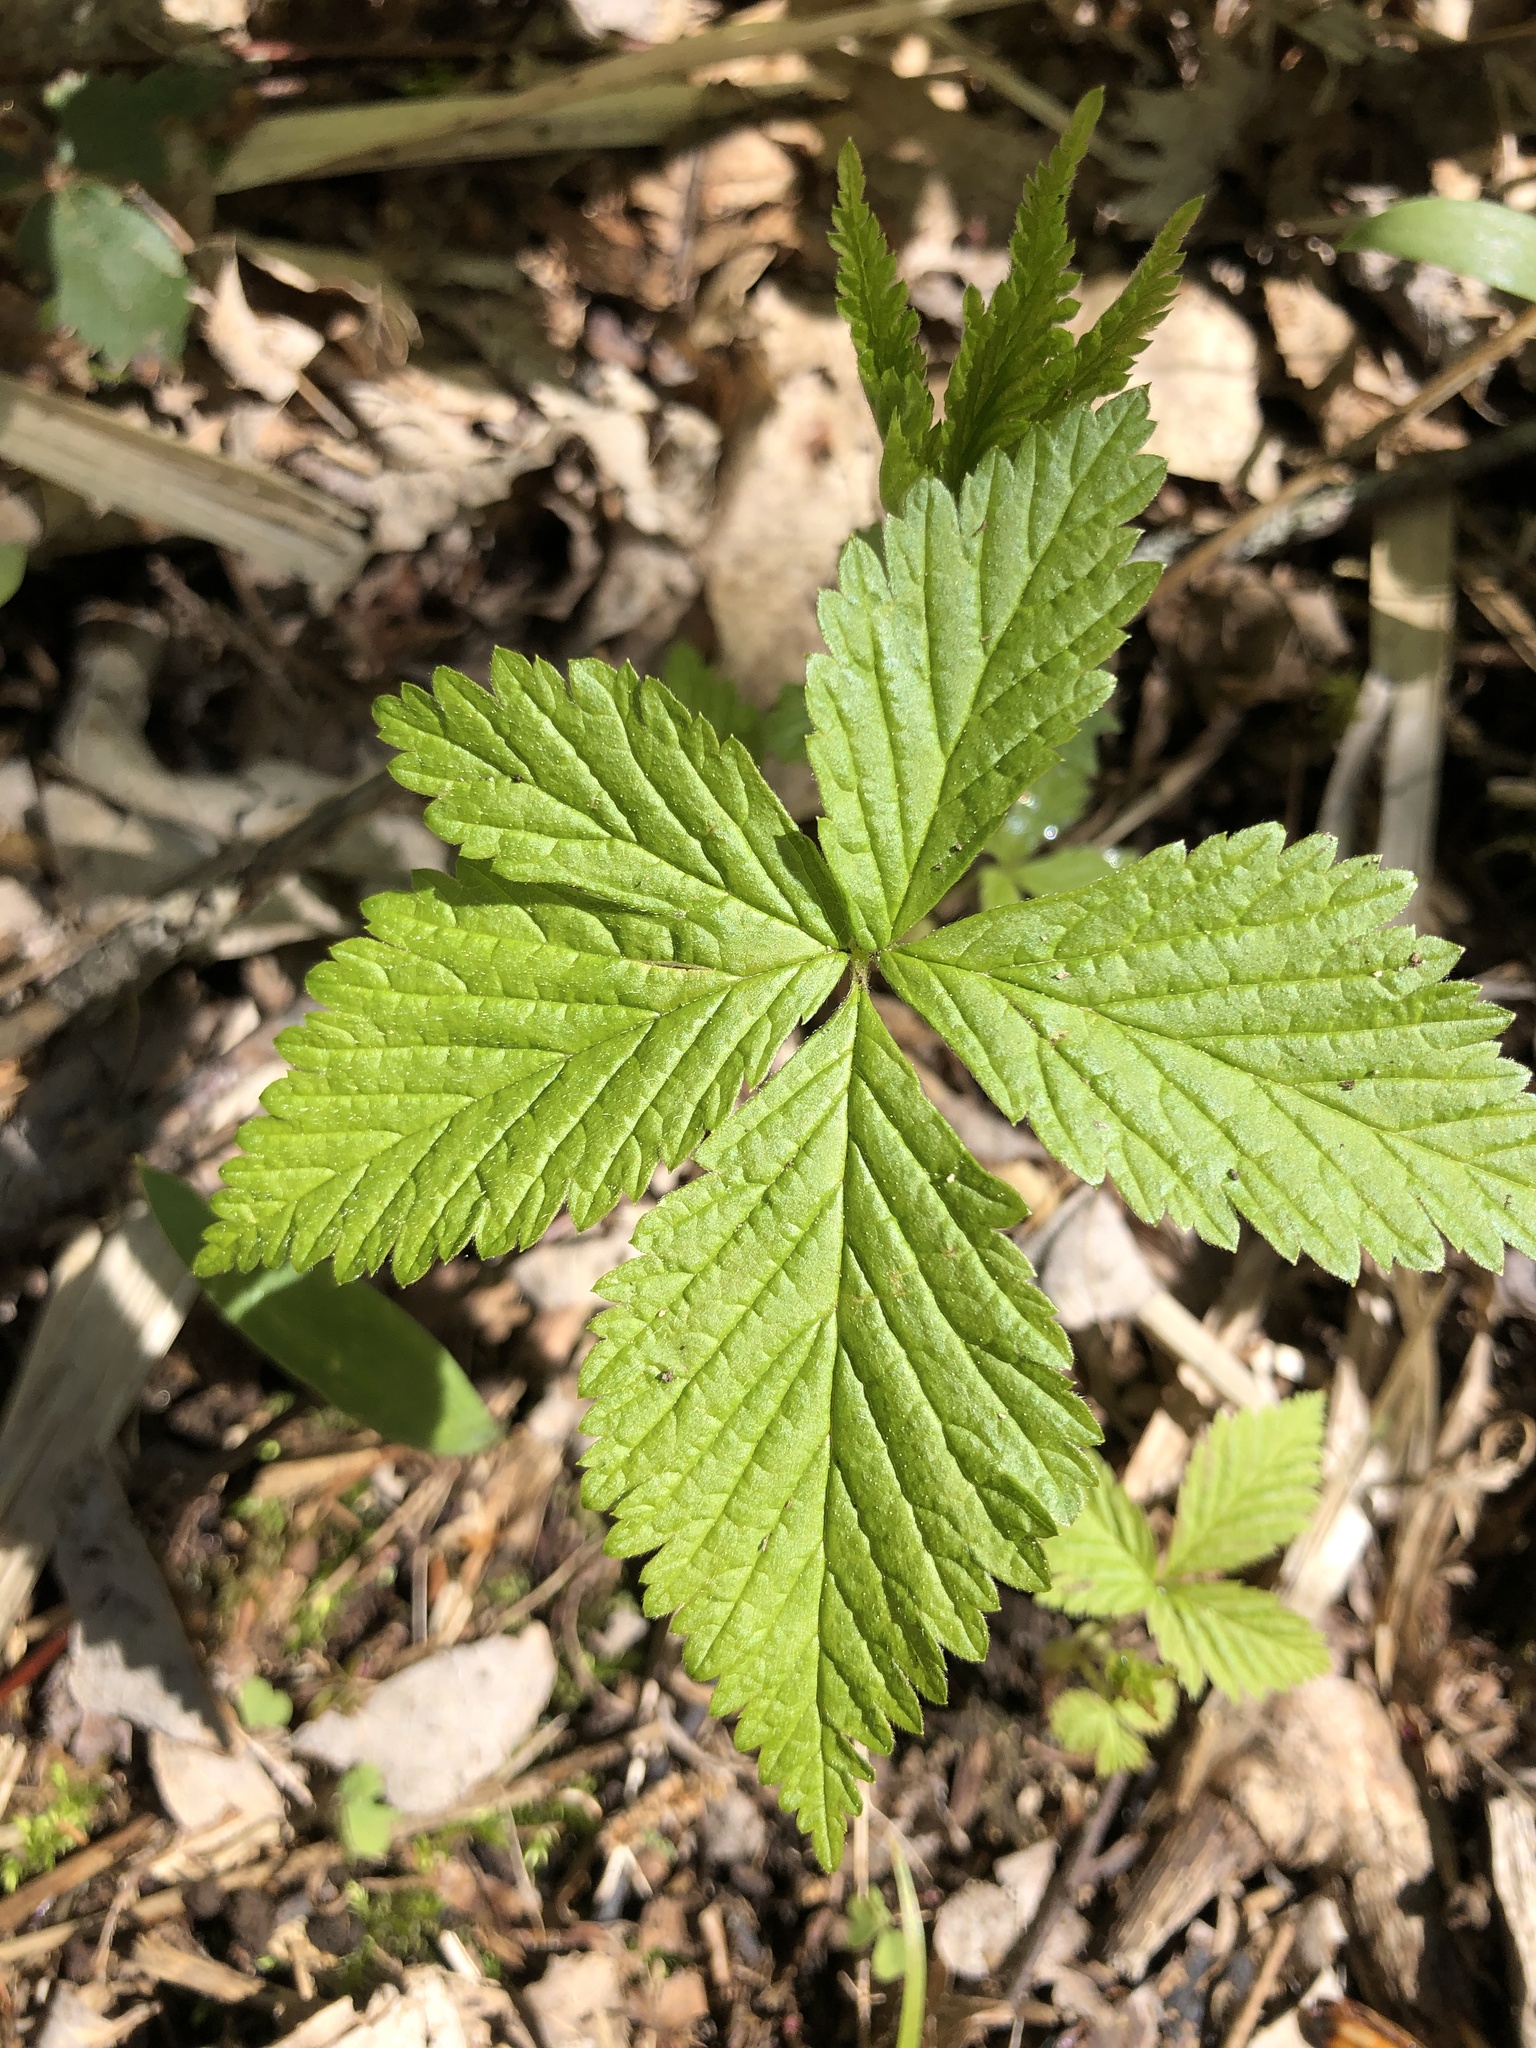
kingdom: Plantae
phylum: Tracheophyta
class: Magnoliopsida
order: Rosales
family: Rosaceae
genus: Rubus
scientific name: Rubus pubescens
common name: Dwarf raspberry
